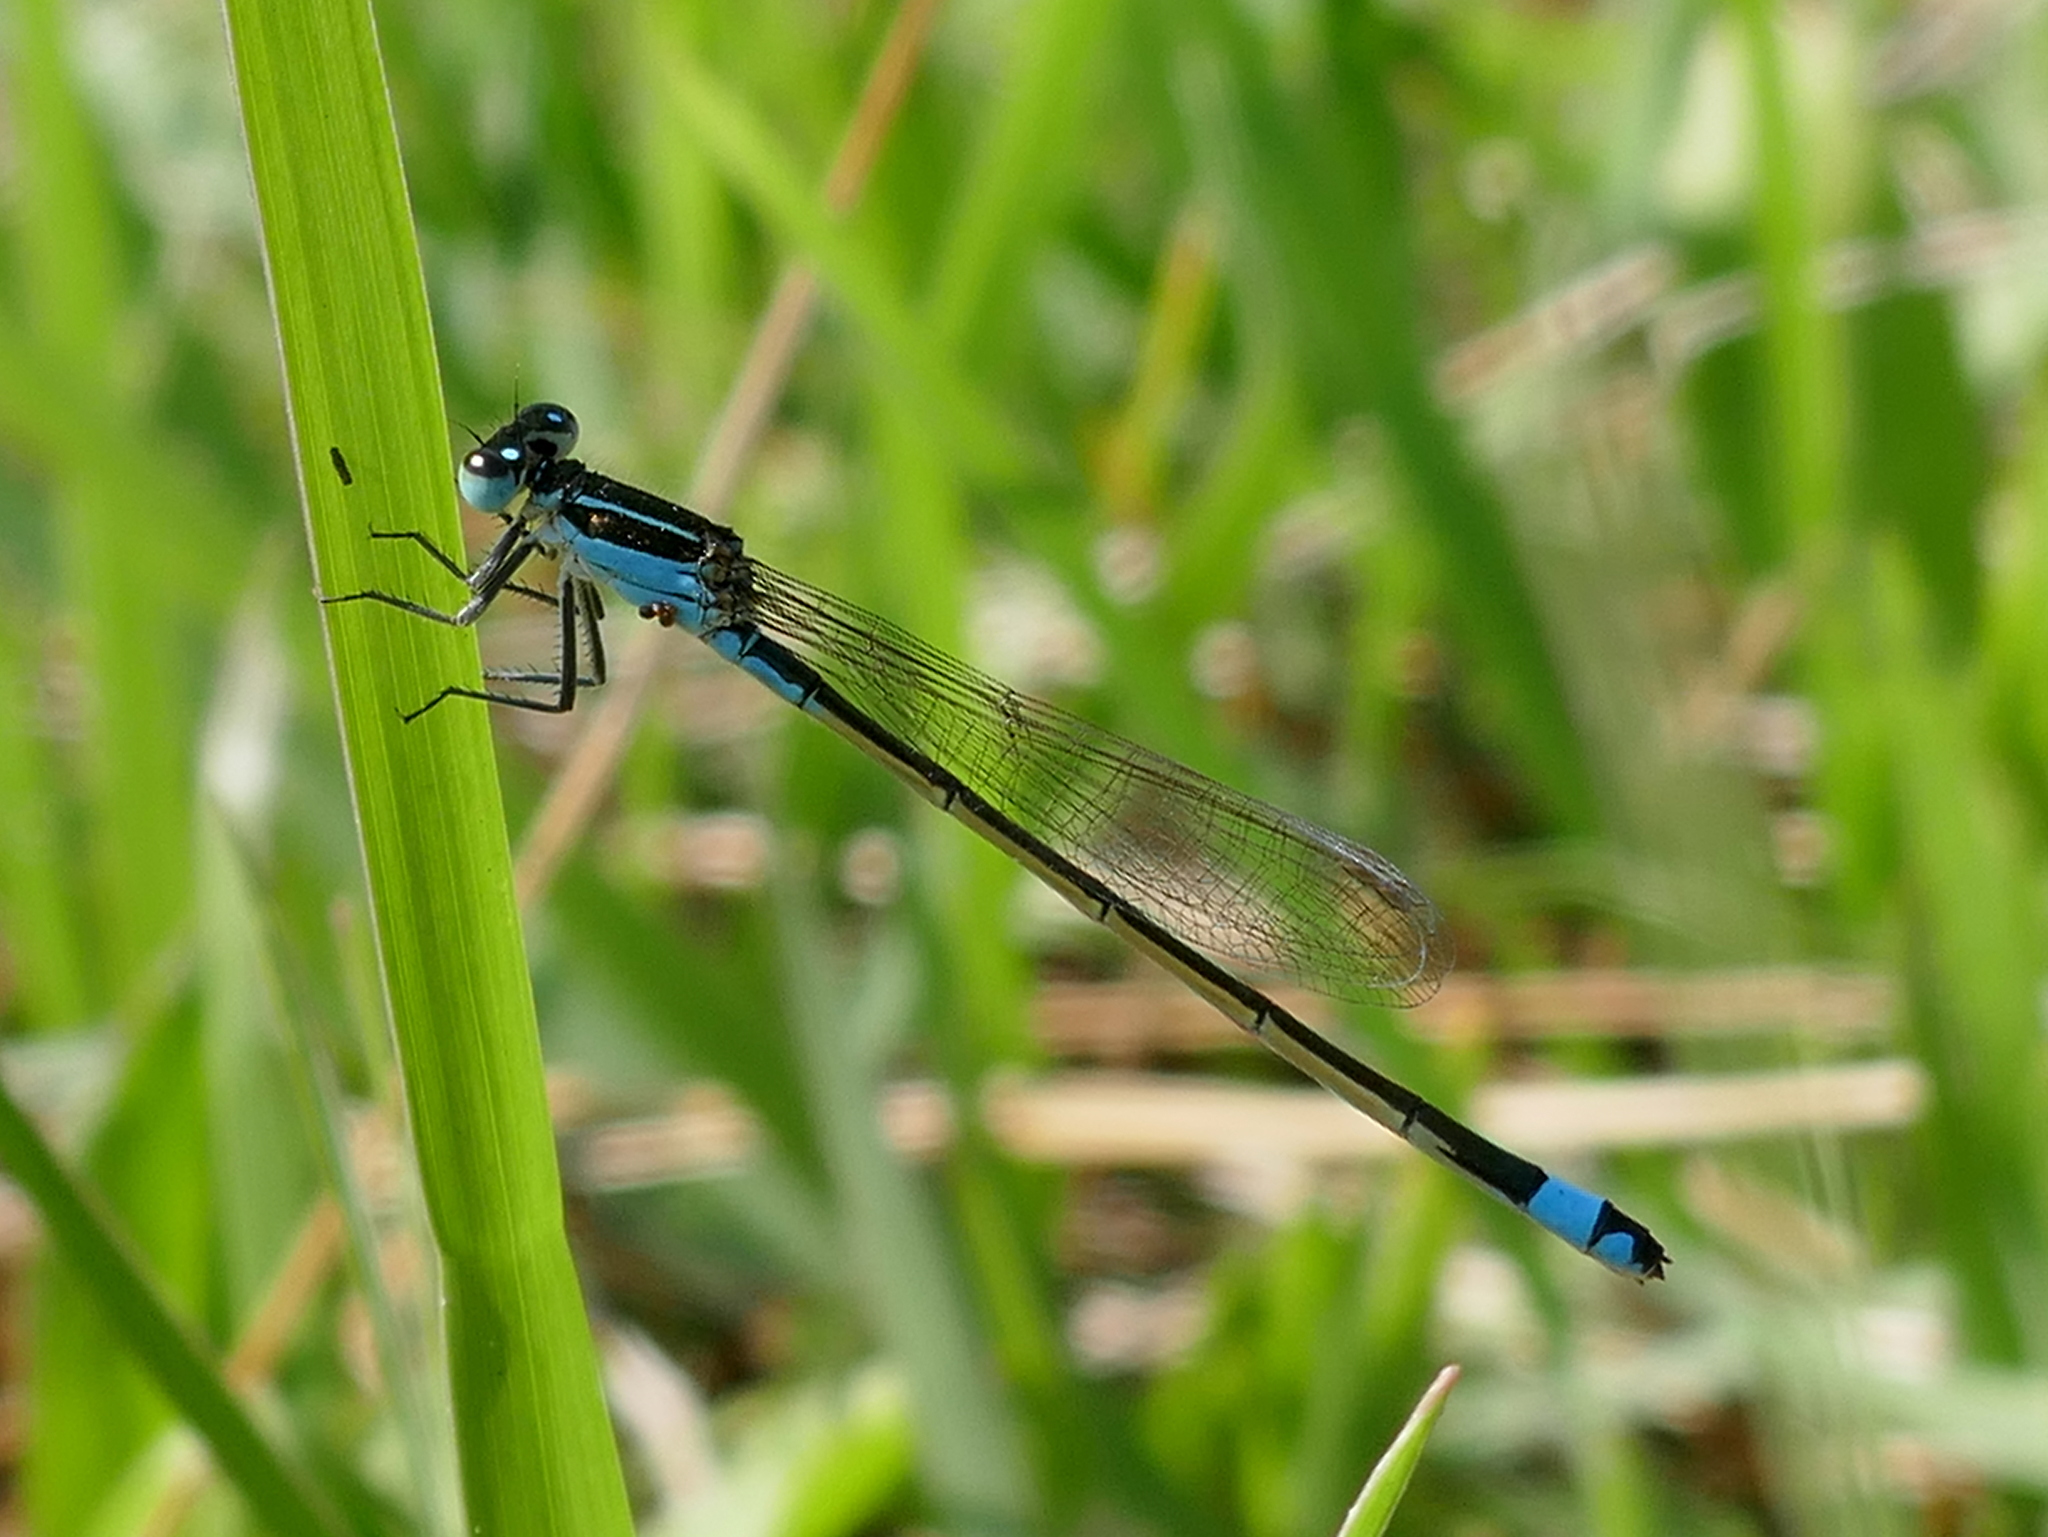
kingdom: Animalia
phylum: Arthropoda
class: Insecta
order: Odonata
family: Coenagrionidae
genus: Ischnura
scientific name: Ischnura ramburii
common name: Rambur's forktail
